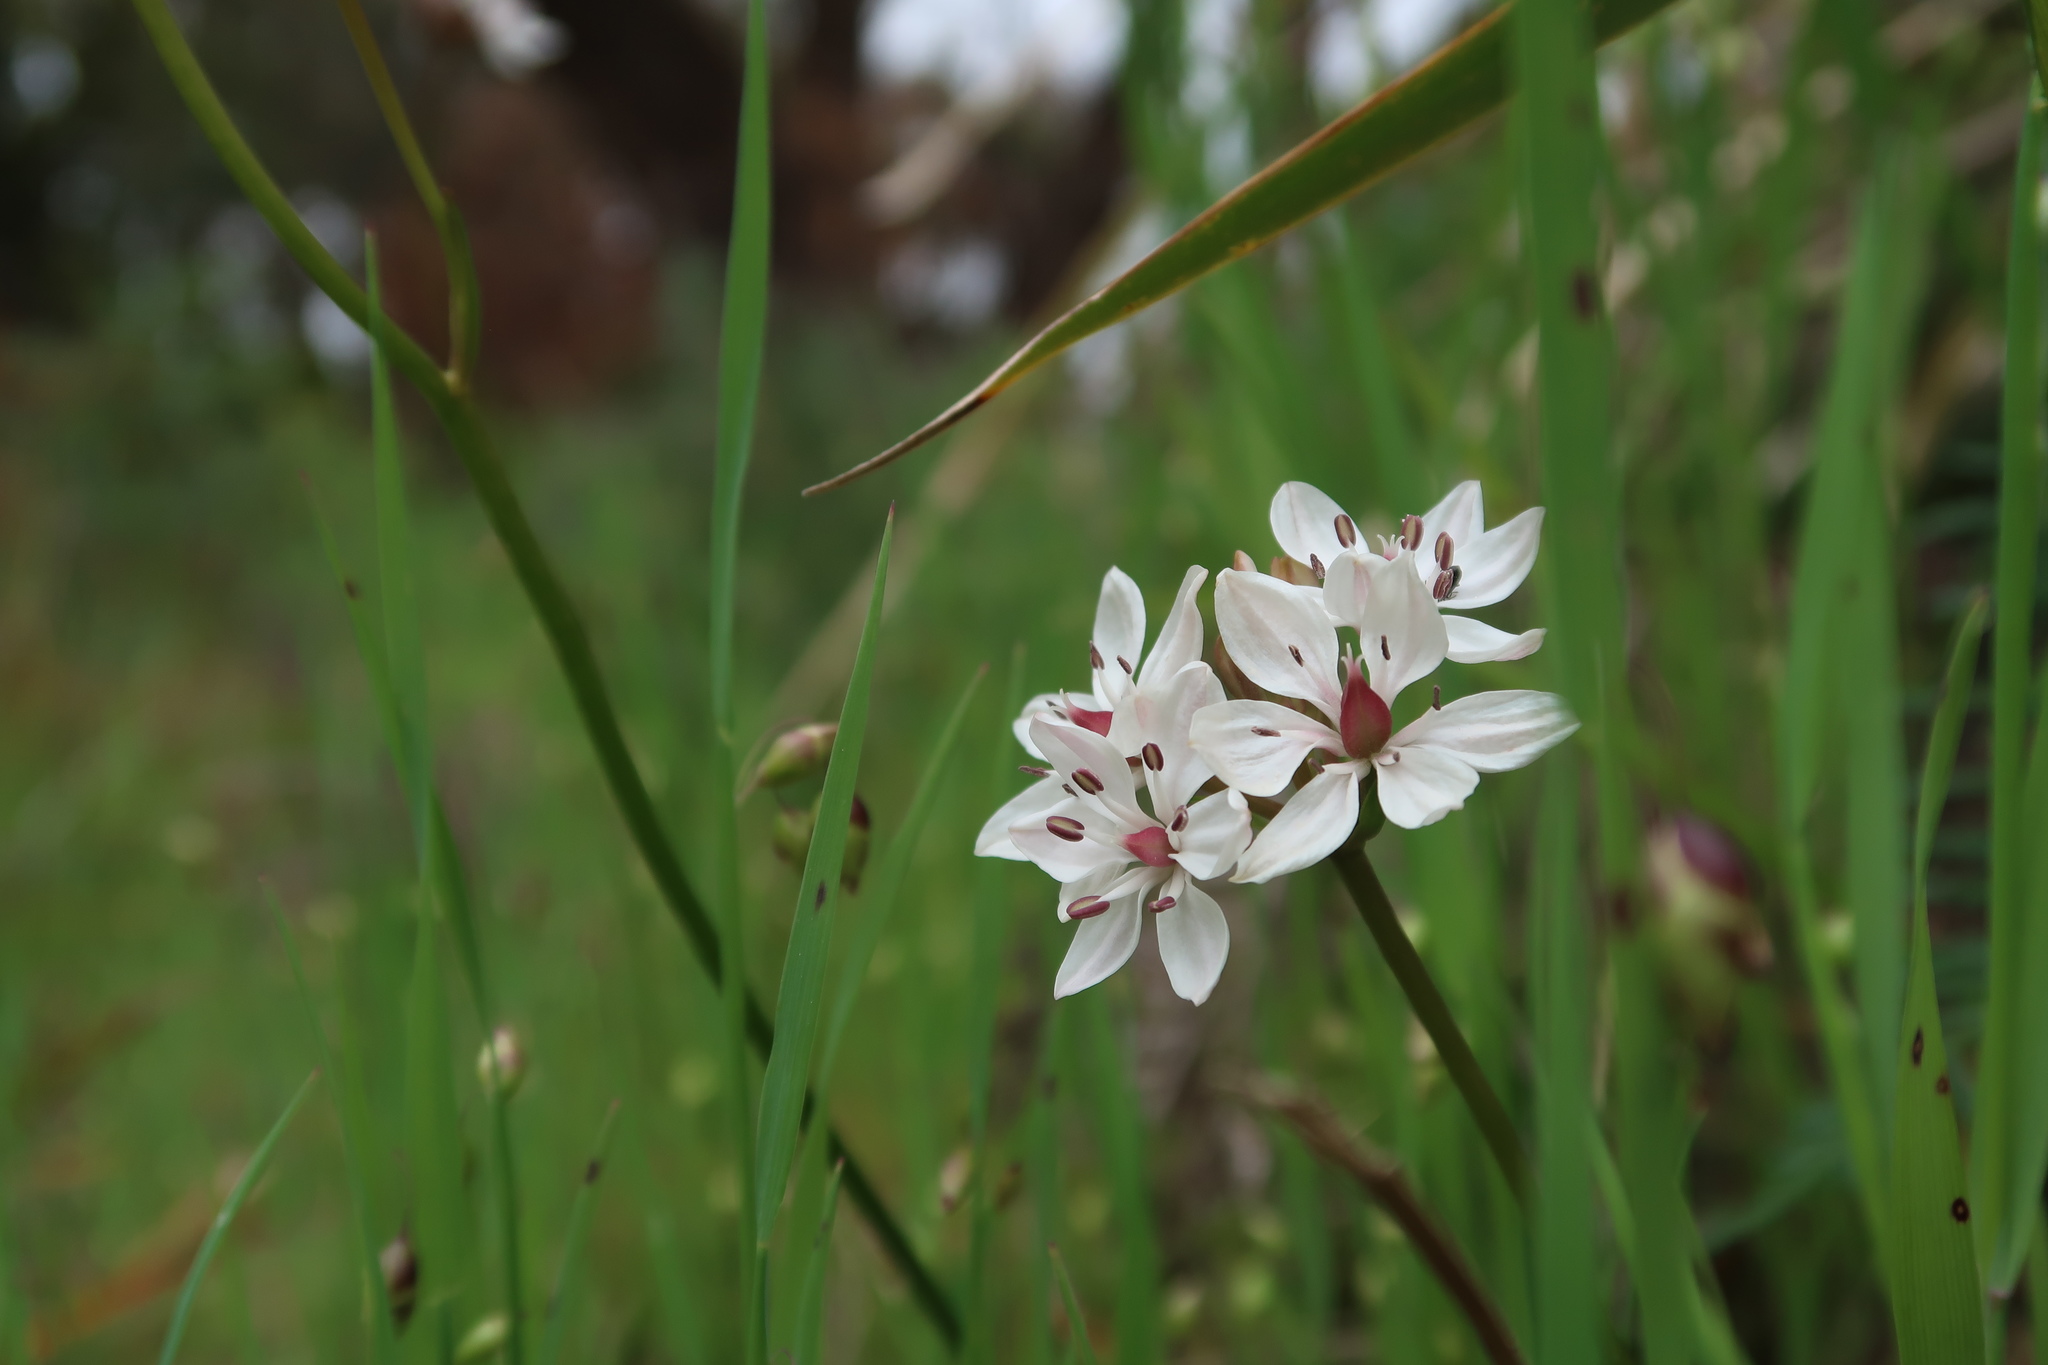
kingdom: Plantae
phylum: Tracheophyta
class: Liliopsida
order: Liliales
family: Colchicaceae
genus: Burchardia
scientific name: Burchardia umbellata
